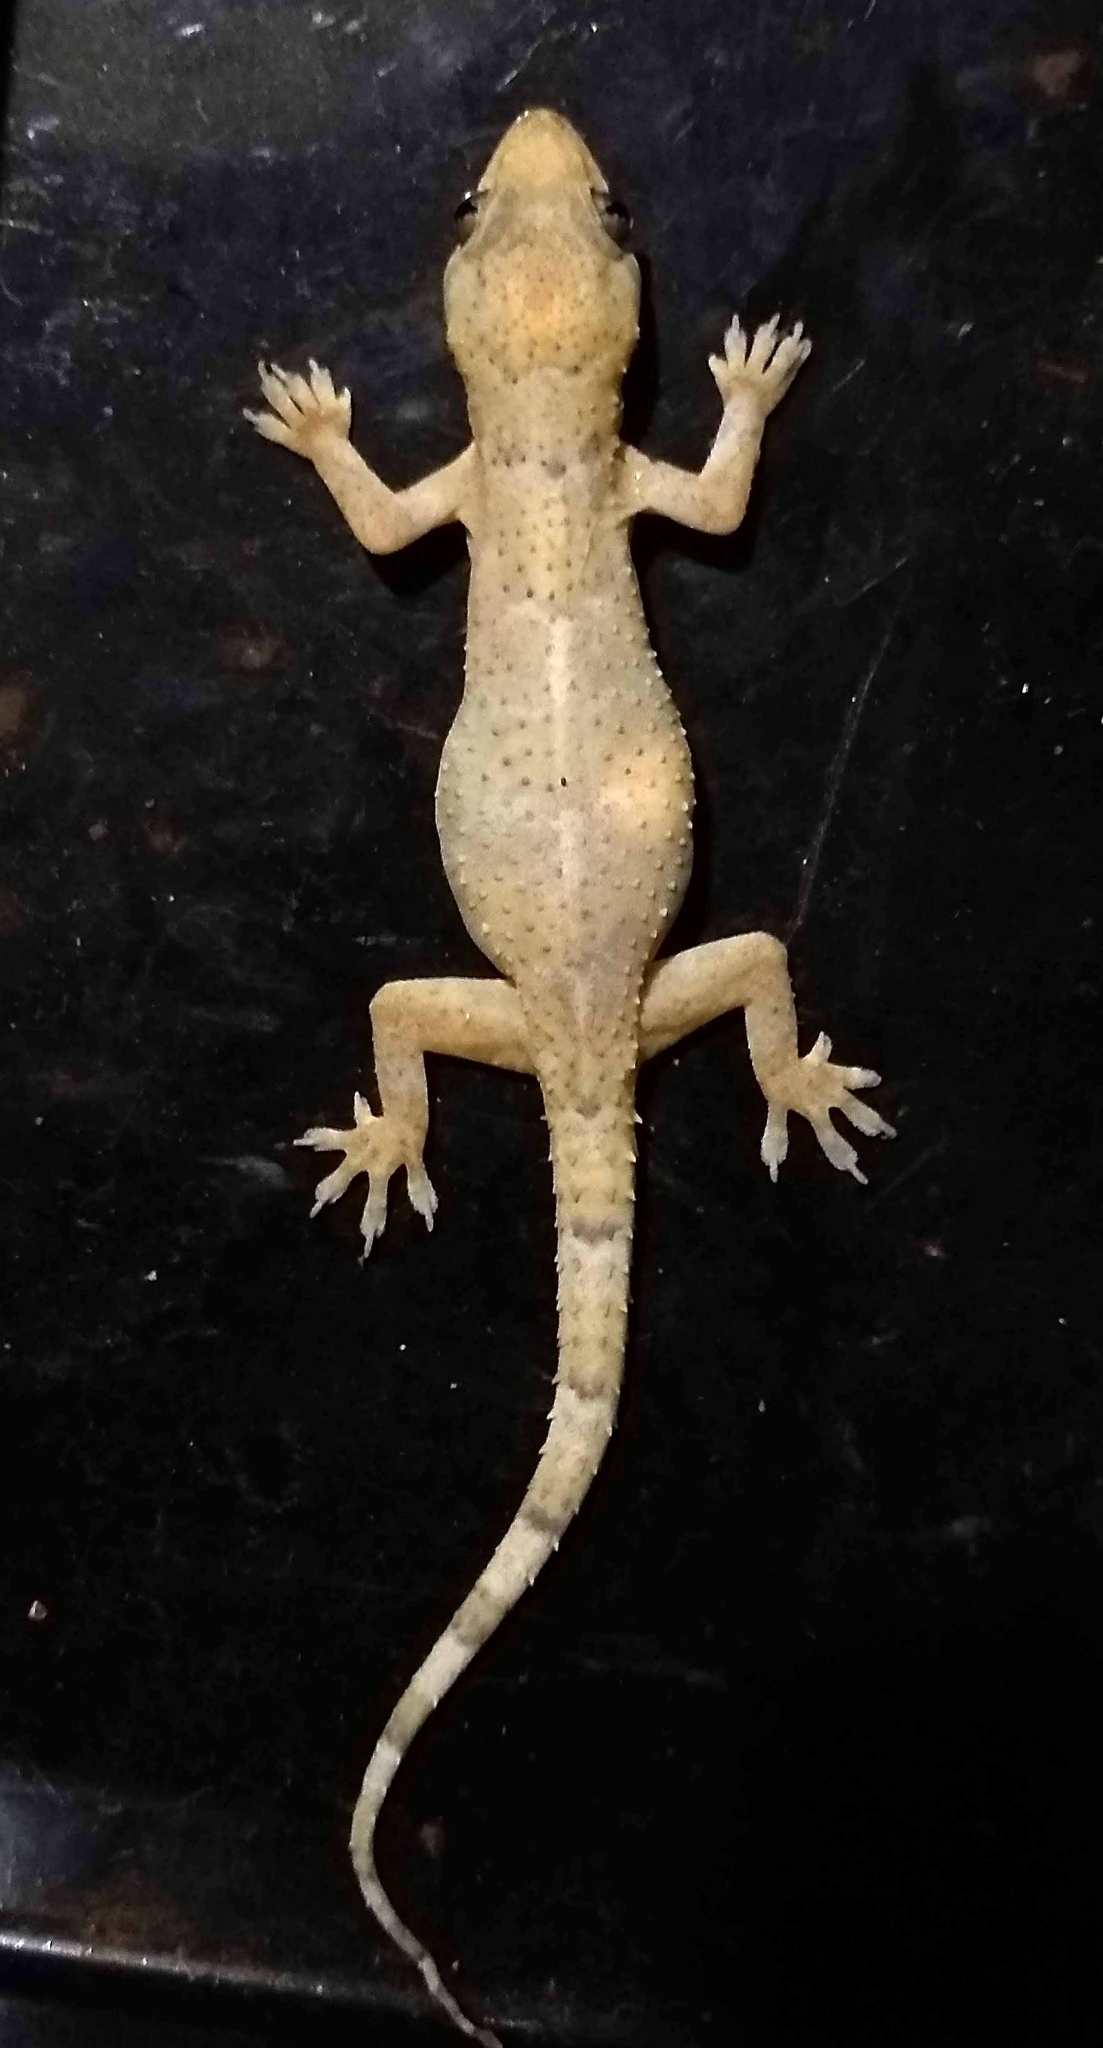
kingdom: Animalia
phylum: Chordata
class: Squamata
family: Gekkonidae
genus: Hemidactylus
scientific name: Hemidactylus mabouia
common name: House gecko
